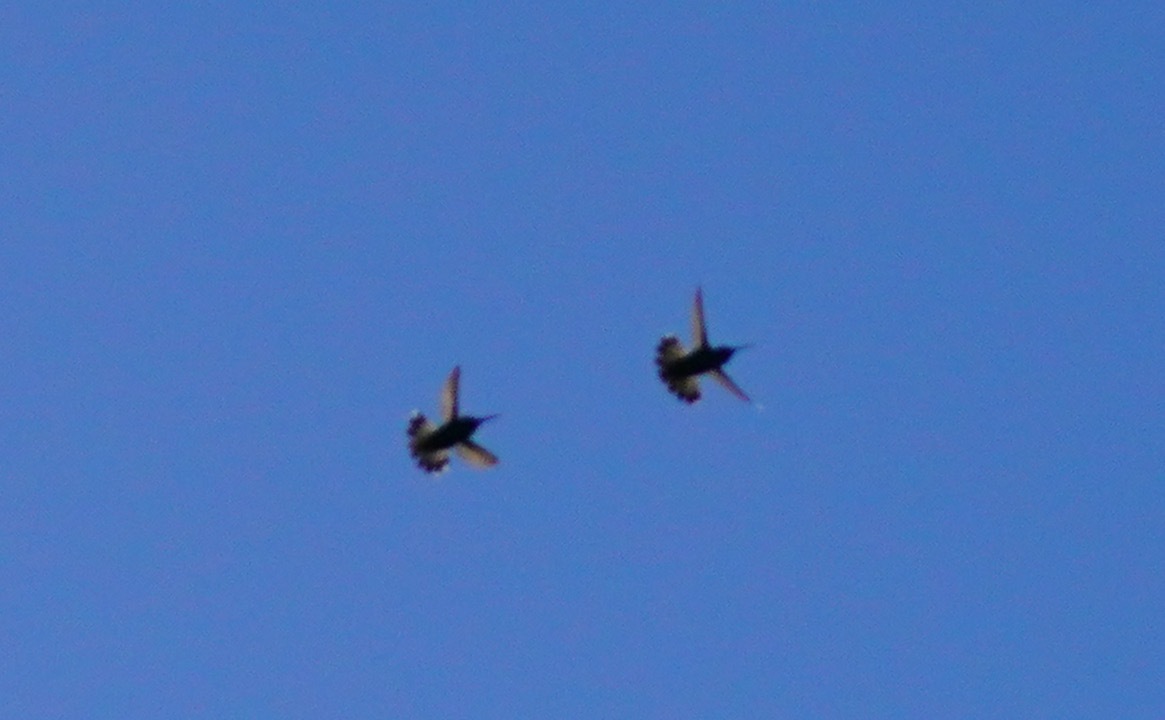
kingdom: Animalia
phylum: Chordata
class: Aves
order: Apodiformes
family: Trochilidae
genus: Calypte
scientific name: Calypte anna
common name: Anna's hummingbird
